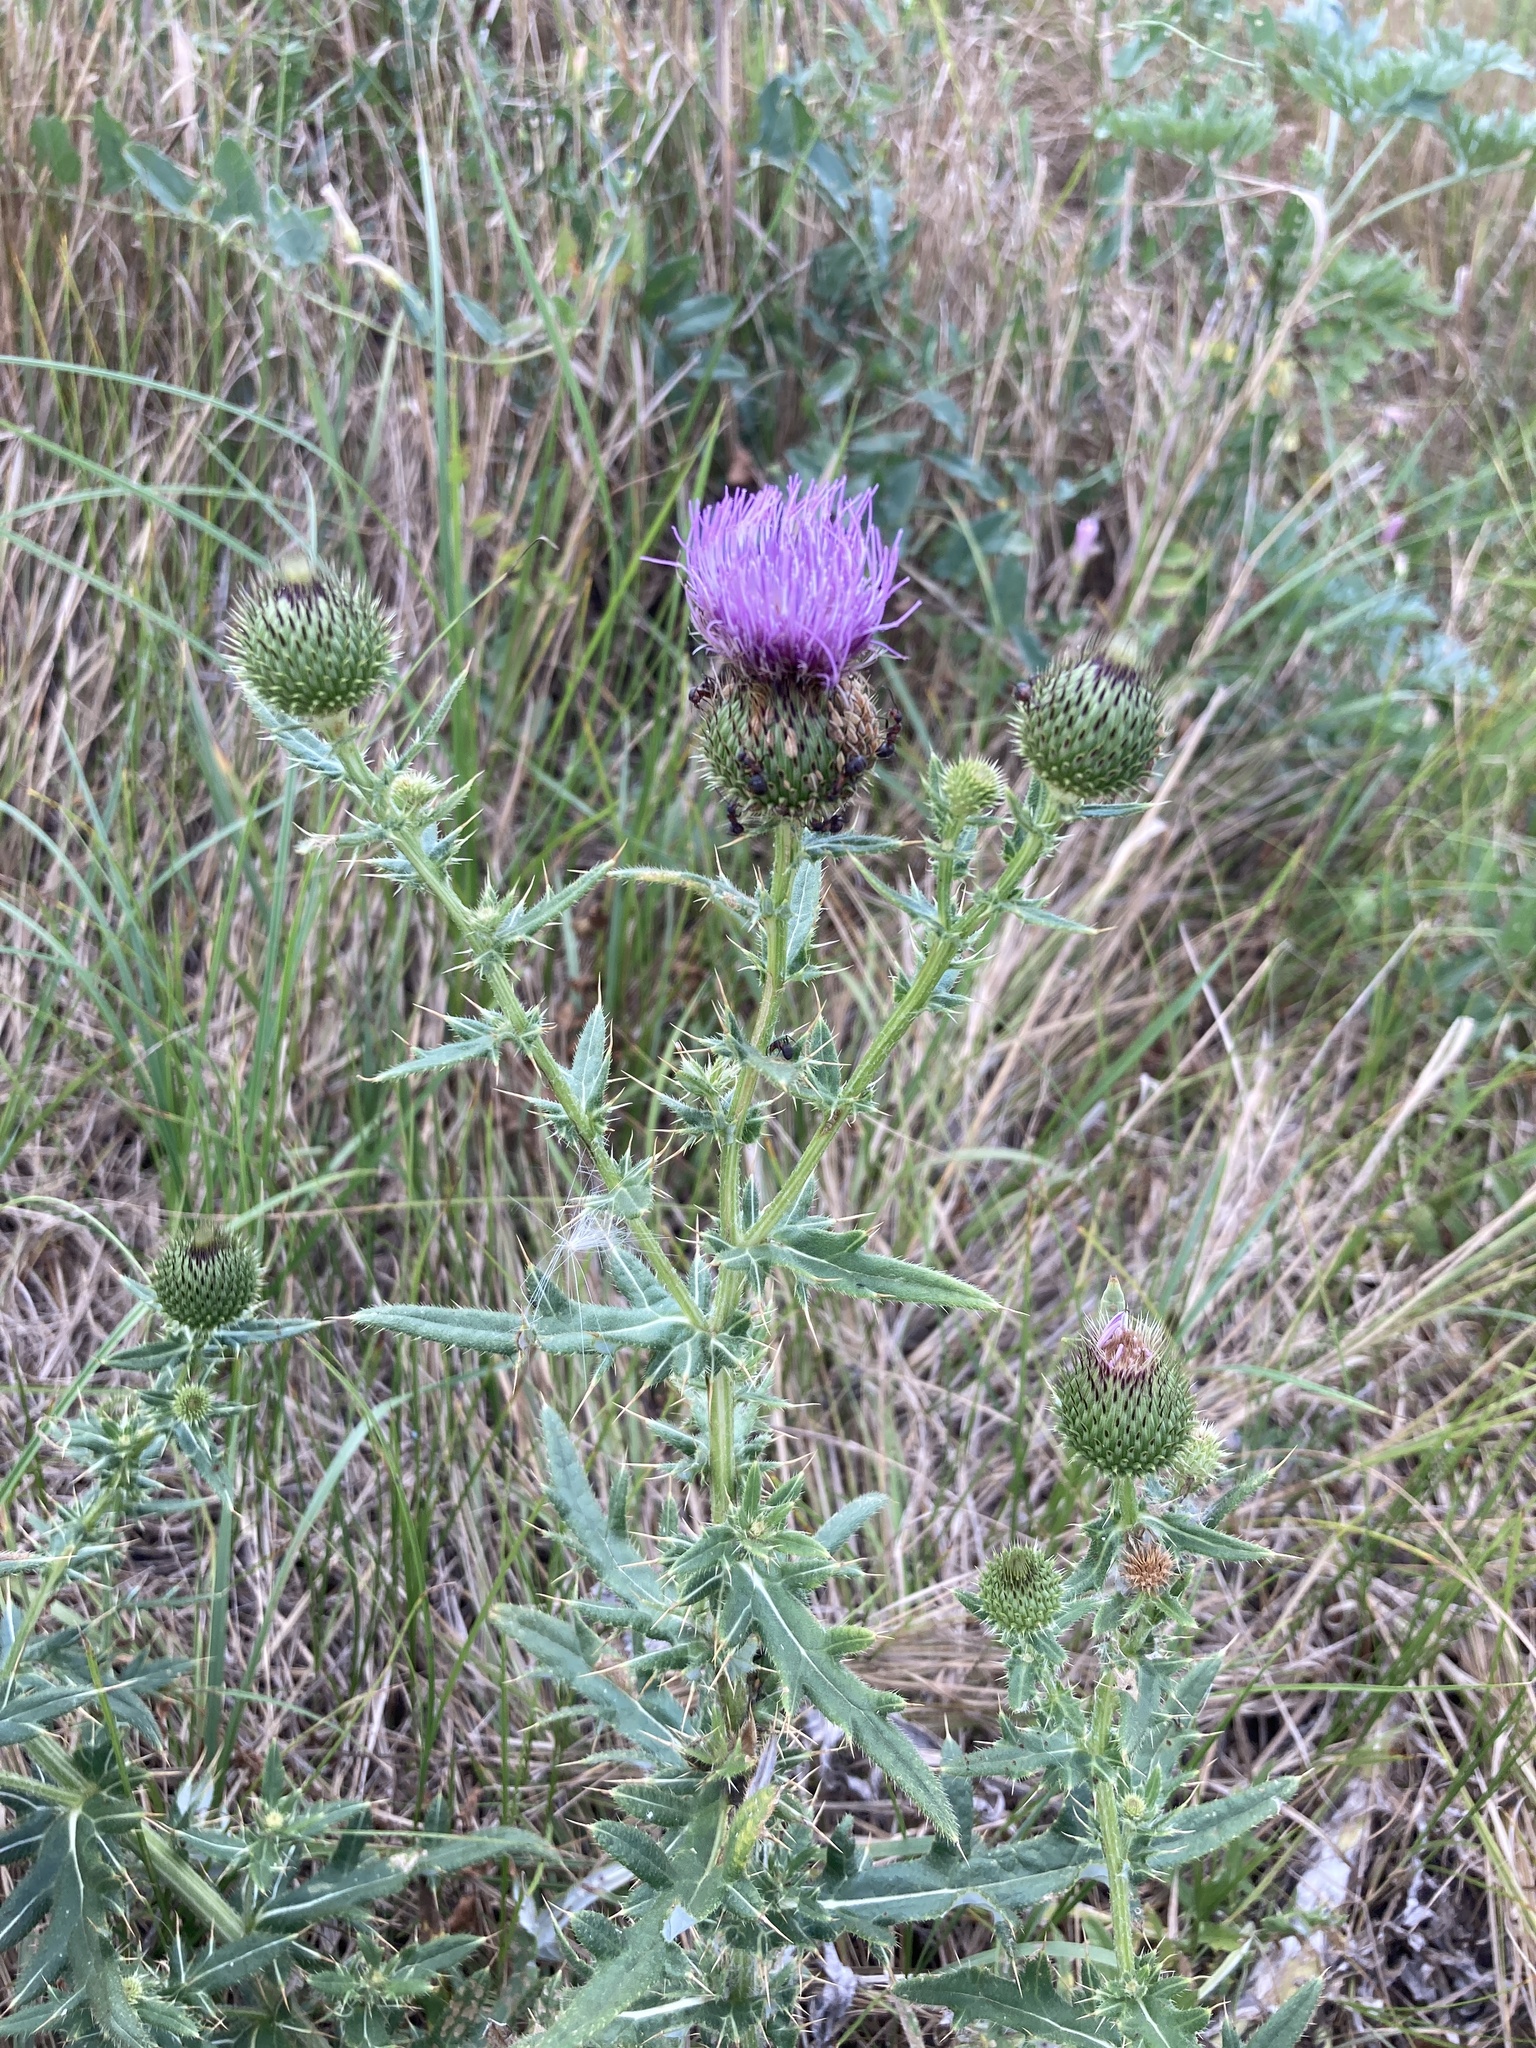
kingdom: Plantae
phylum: Tracheophyta
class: Magnoliopsida
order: Asterales
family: Asteraceae
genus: Cirsium
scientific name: Cirsium serrulatum
